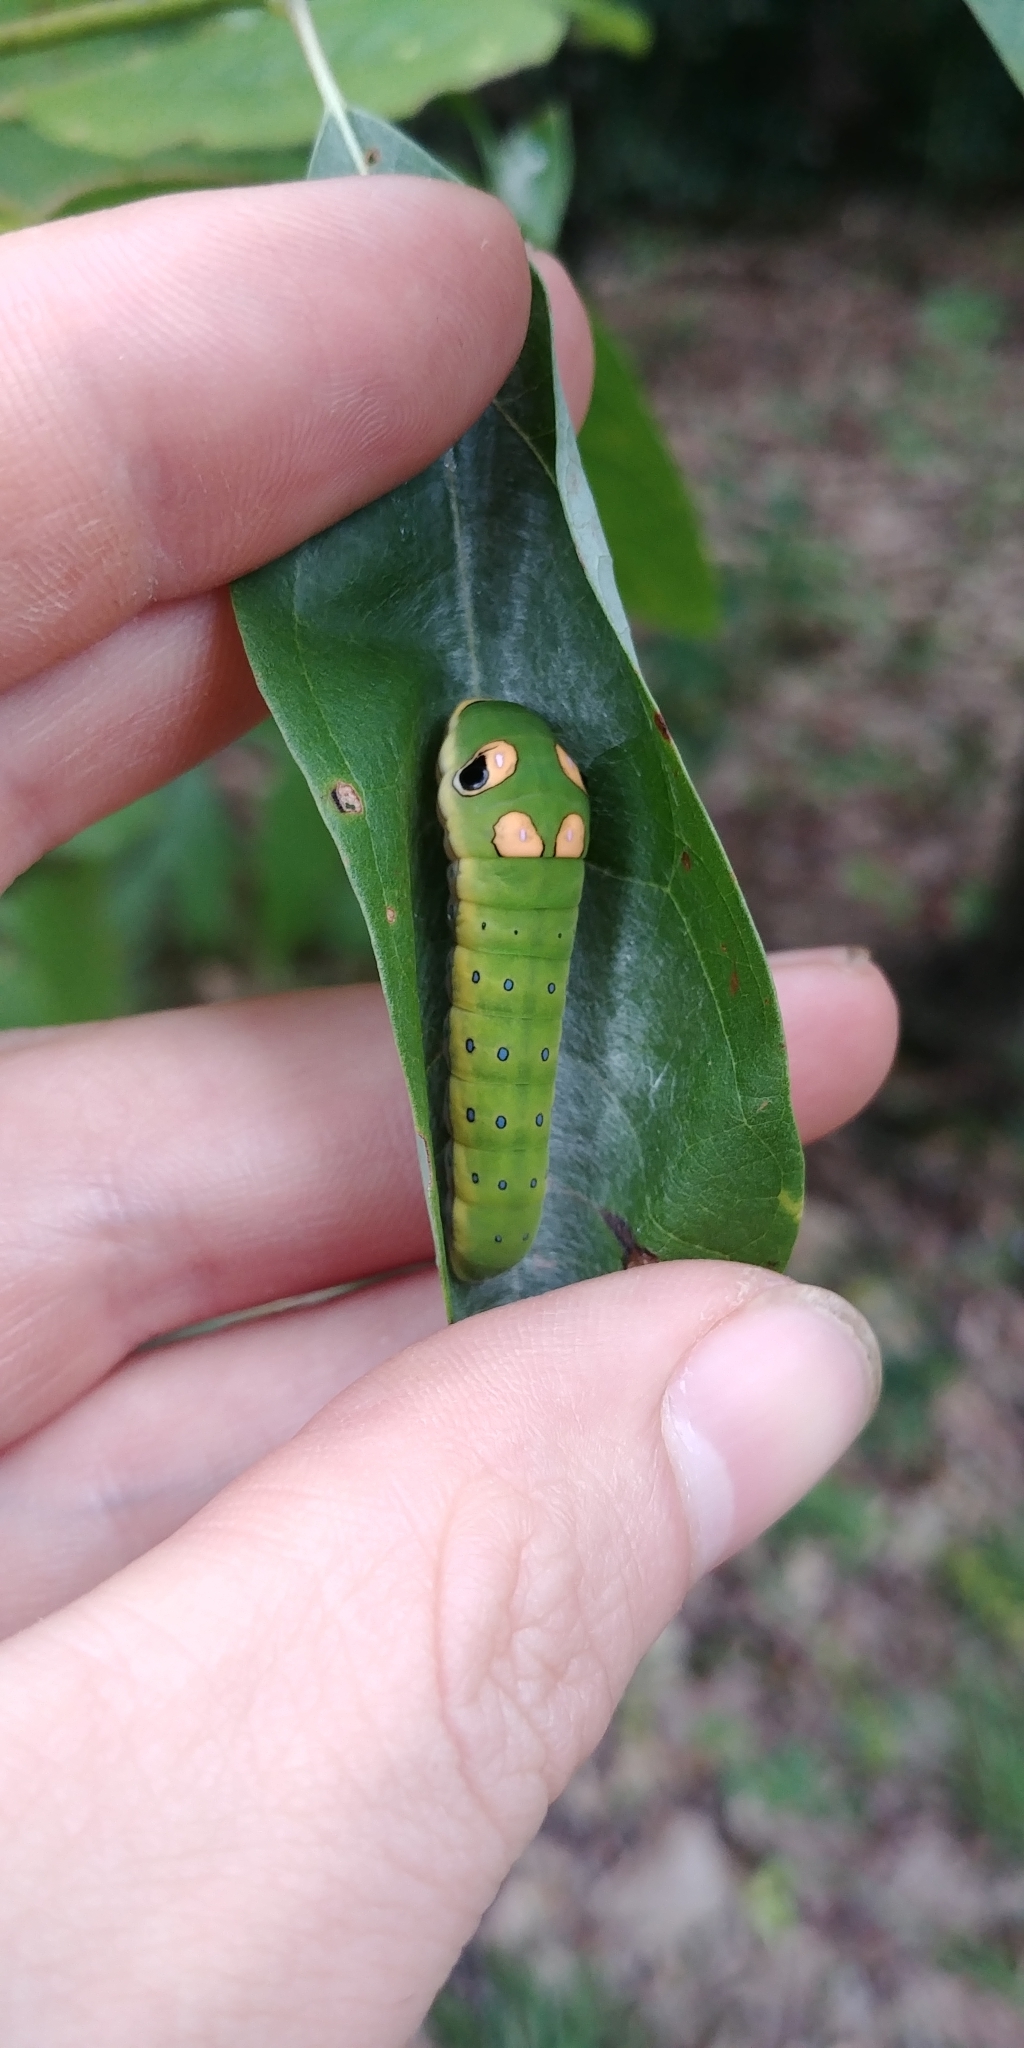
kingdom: Animalia
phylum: Arthropoda
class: Insecta
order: Lepidoptera
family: Papilionidae
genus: Papilio
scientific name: Papilio troilus
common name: Spicebush swallowtail
